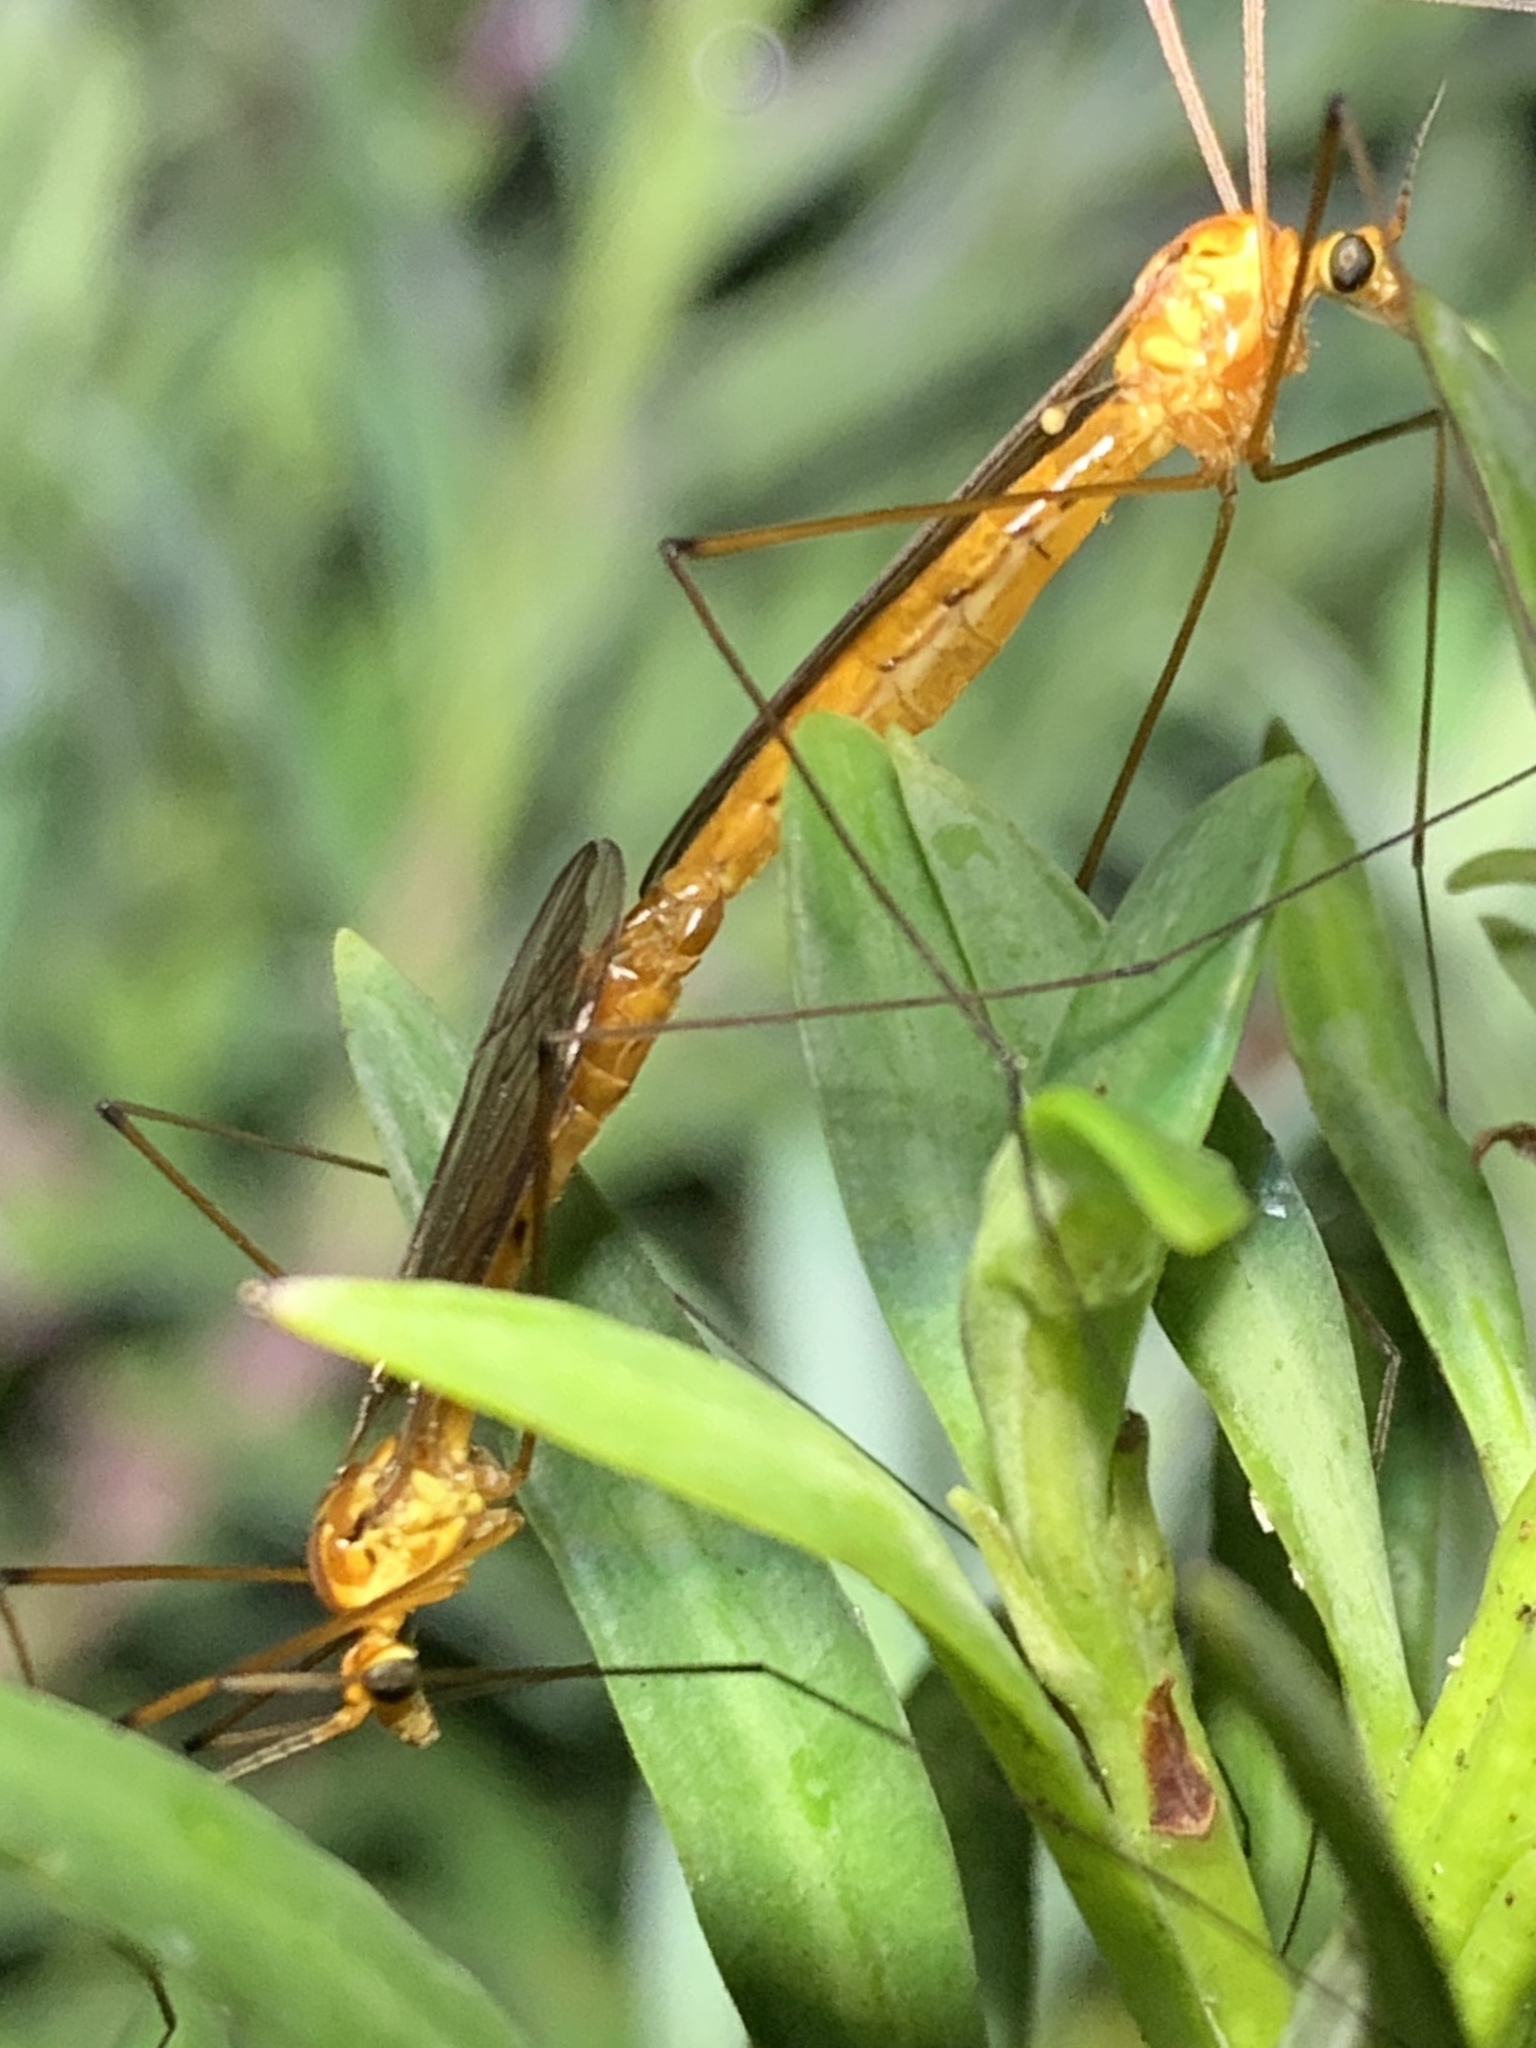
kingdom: Animalia
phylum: Arthropoda
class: Insecta
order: Diptera
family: Tipulidae
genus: Nephrotoma
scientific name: Nephrotoma suturalis
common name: Cranefly
